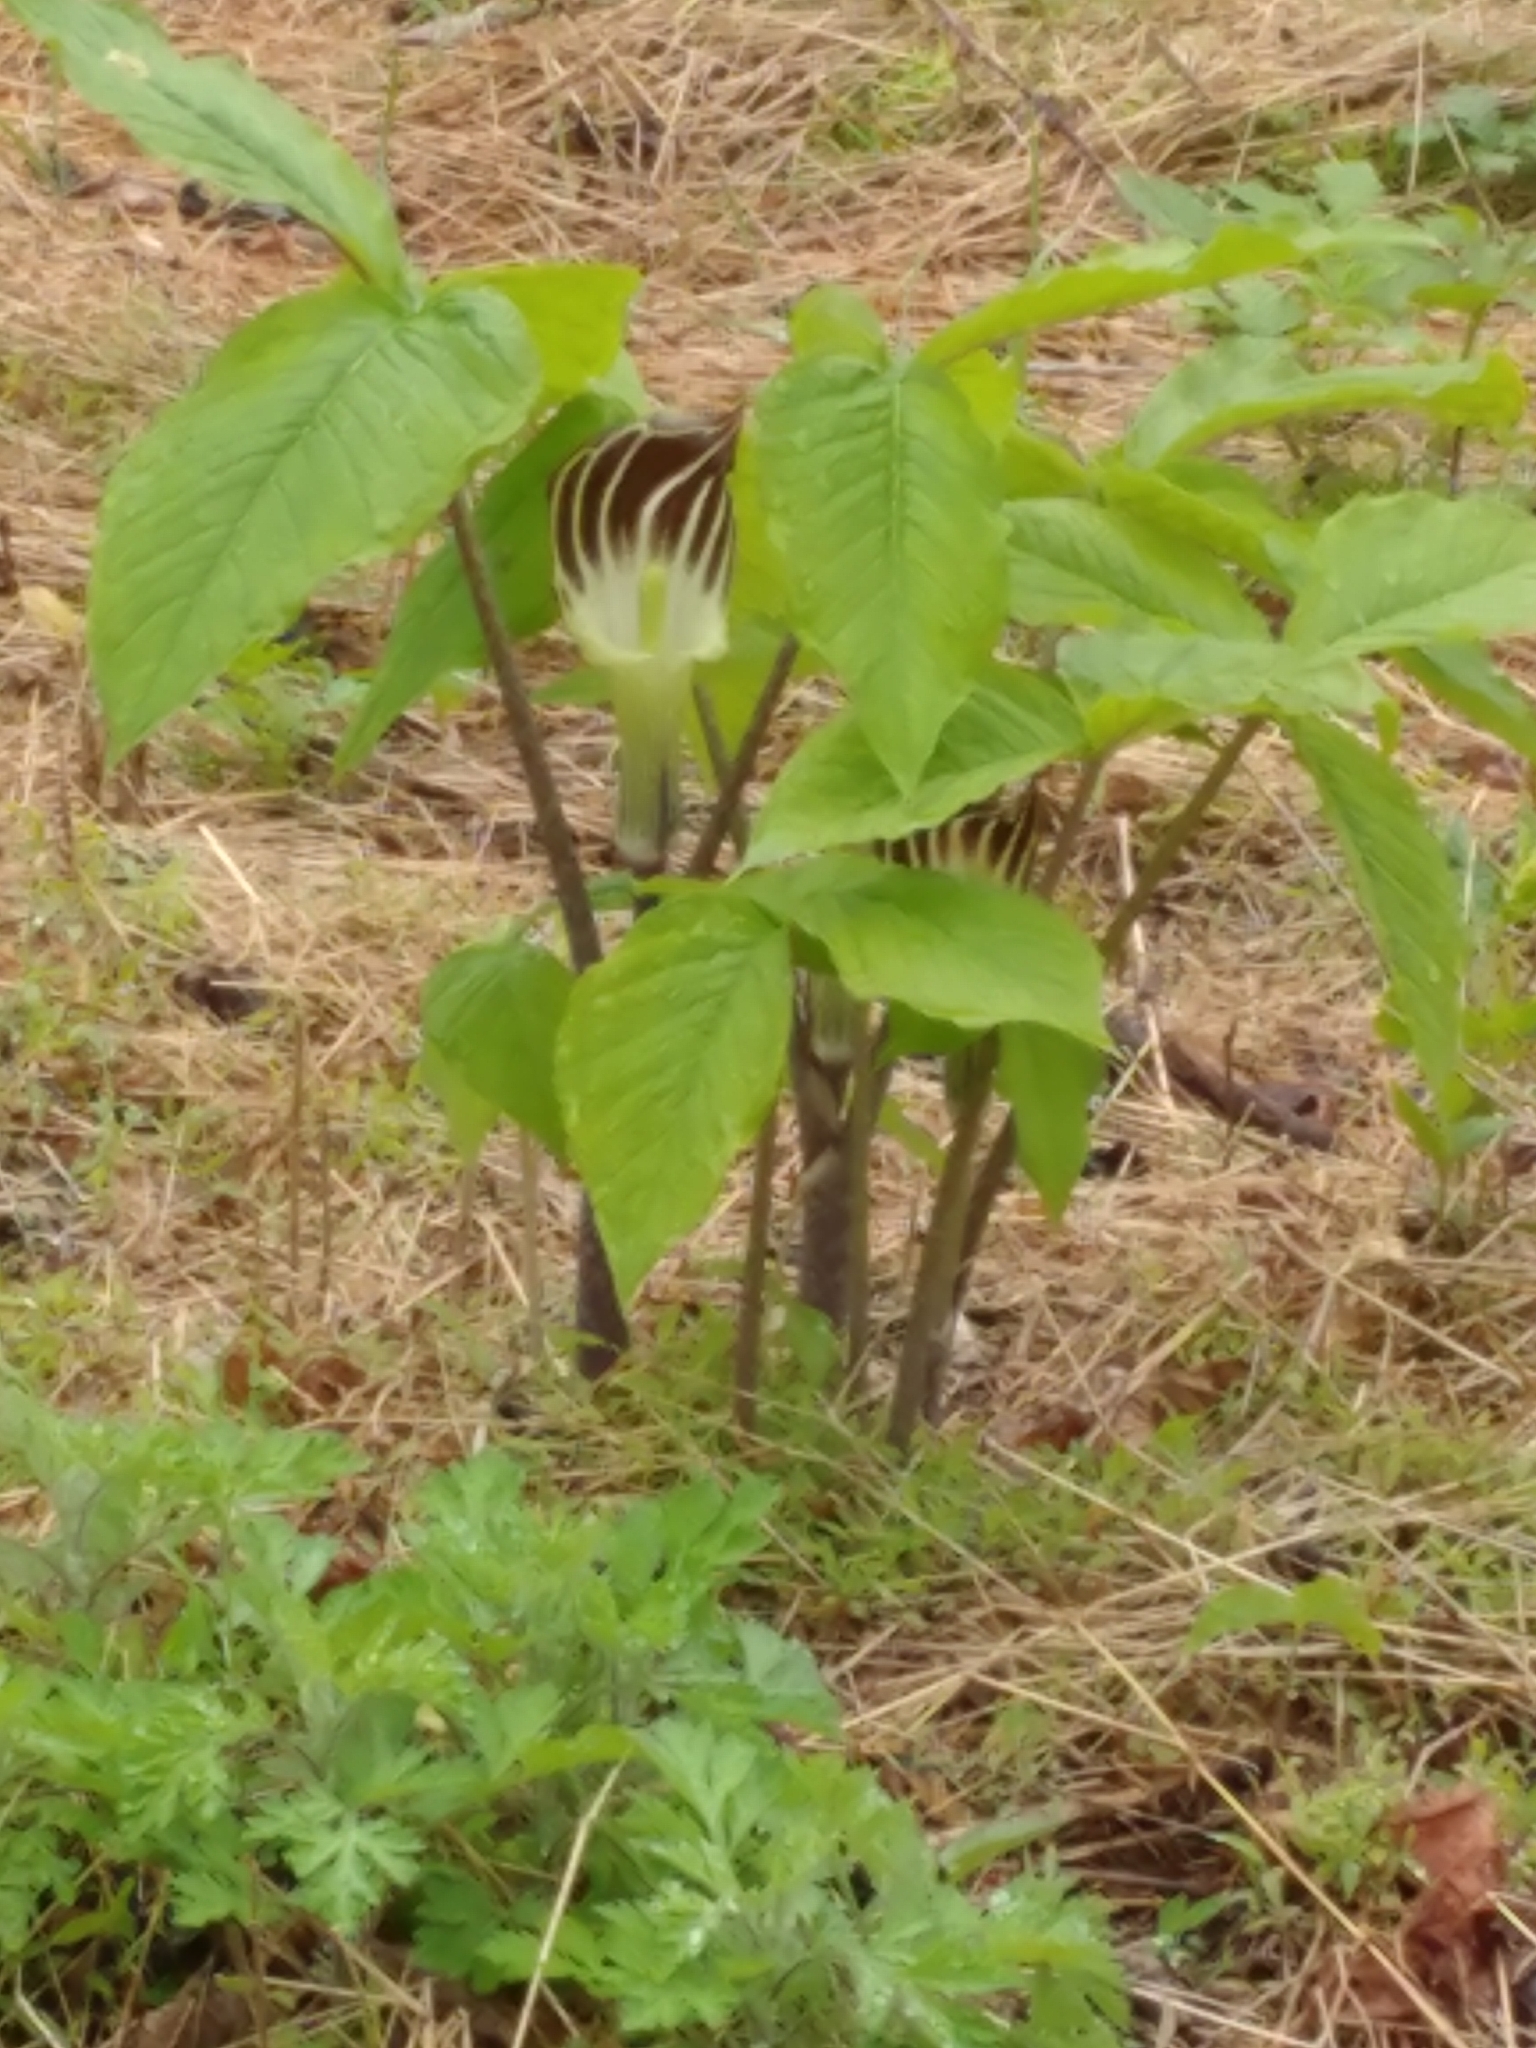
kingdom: Plantae
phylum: Tracheophyta
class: Liliopsida
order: Alismatales
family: Araceae
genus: Arisaema
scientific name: Arisaema triphyllum
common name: Jack-in-the-pulpit
